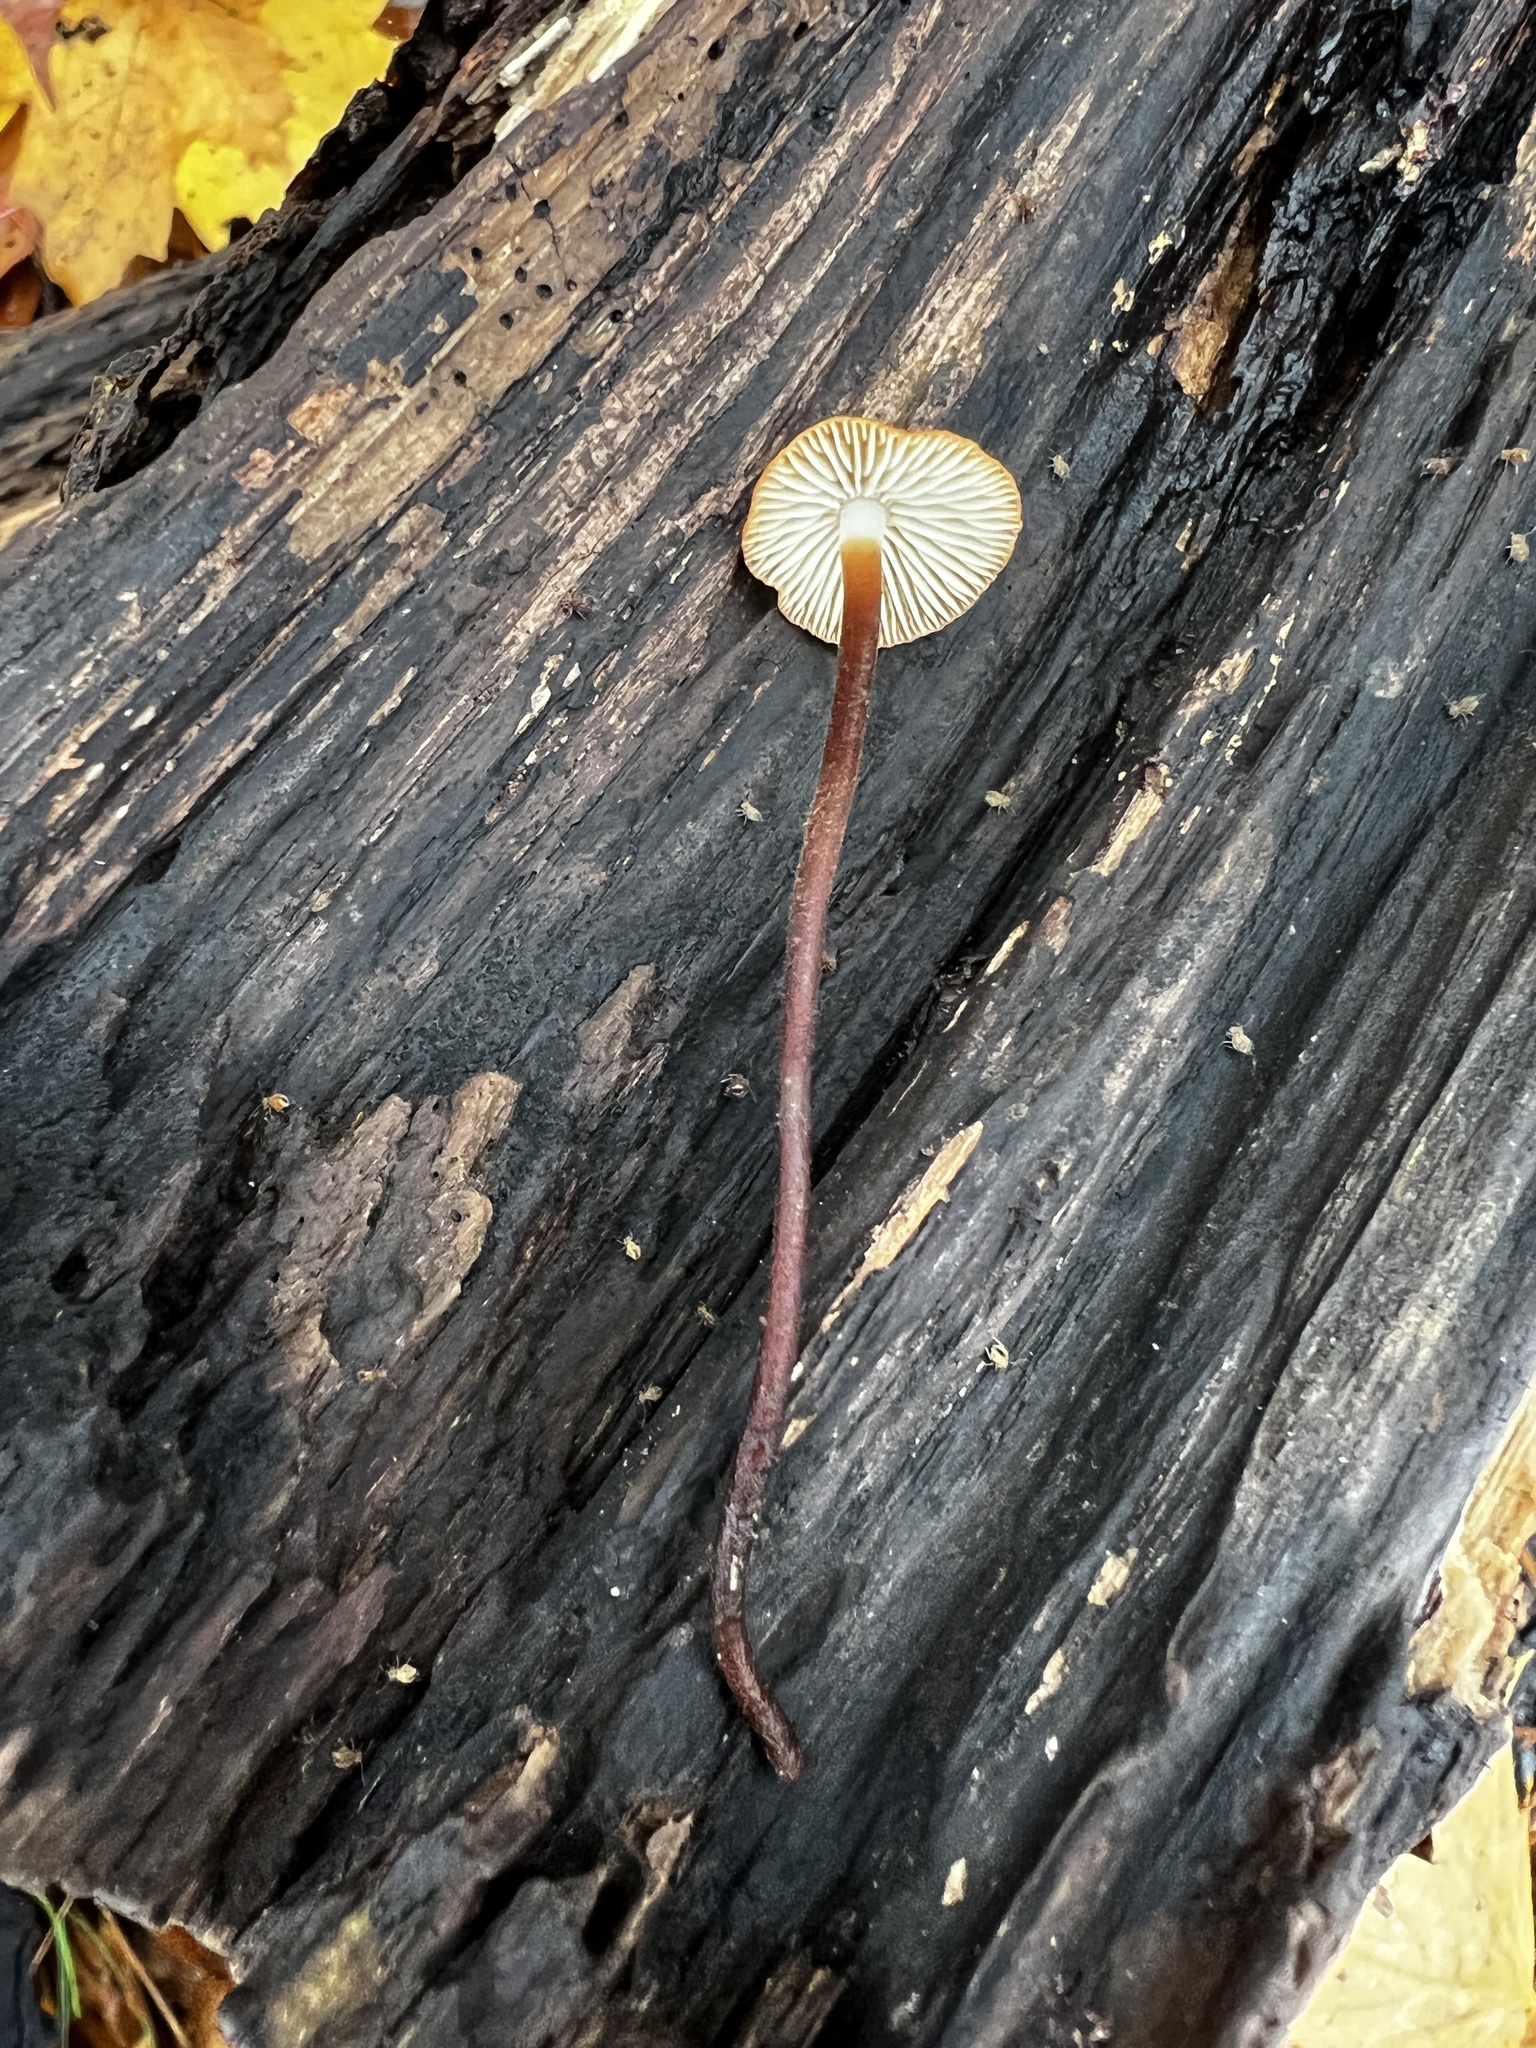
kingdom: Fungi
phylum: Basidiomycota
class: Agaricomycetes
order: Agaricales
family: Physalacriaceae
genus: Rhizomarasmius
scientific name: Rhizomarasmius pyrrhocephalus
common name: Hairy long stem marasmius
